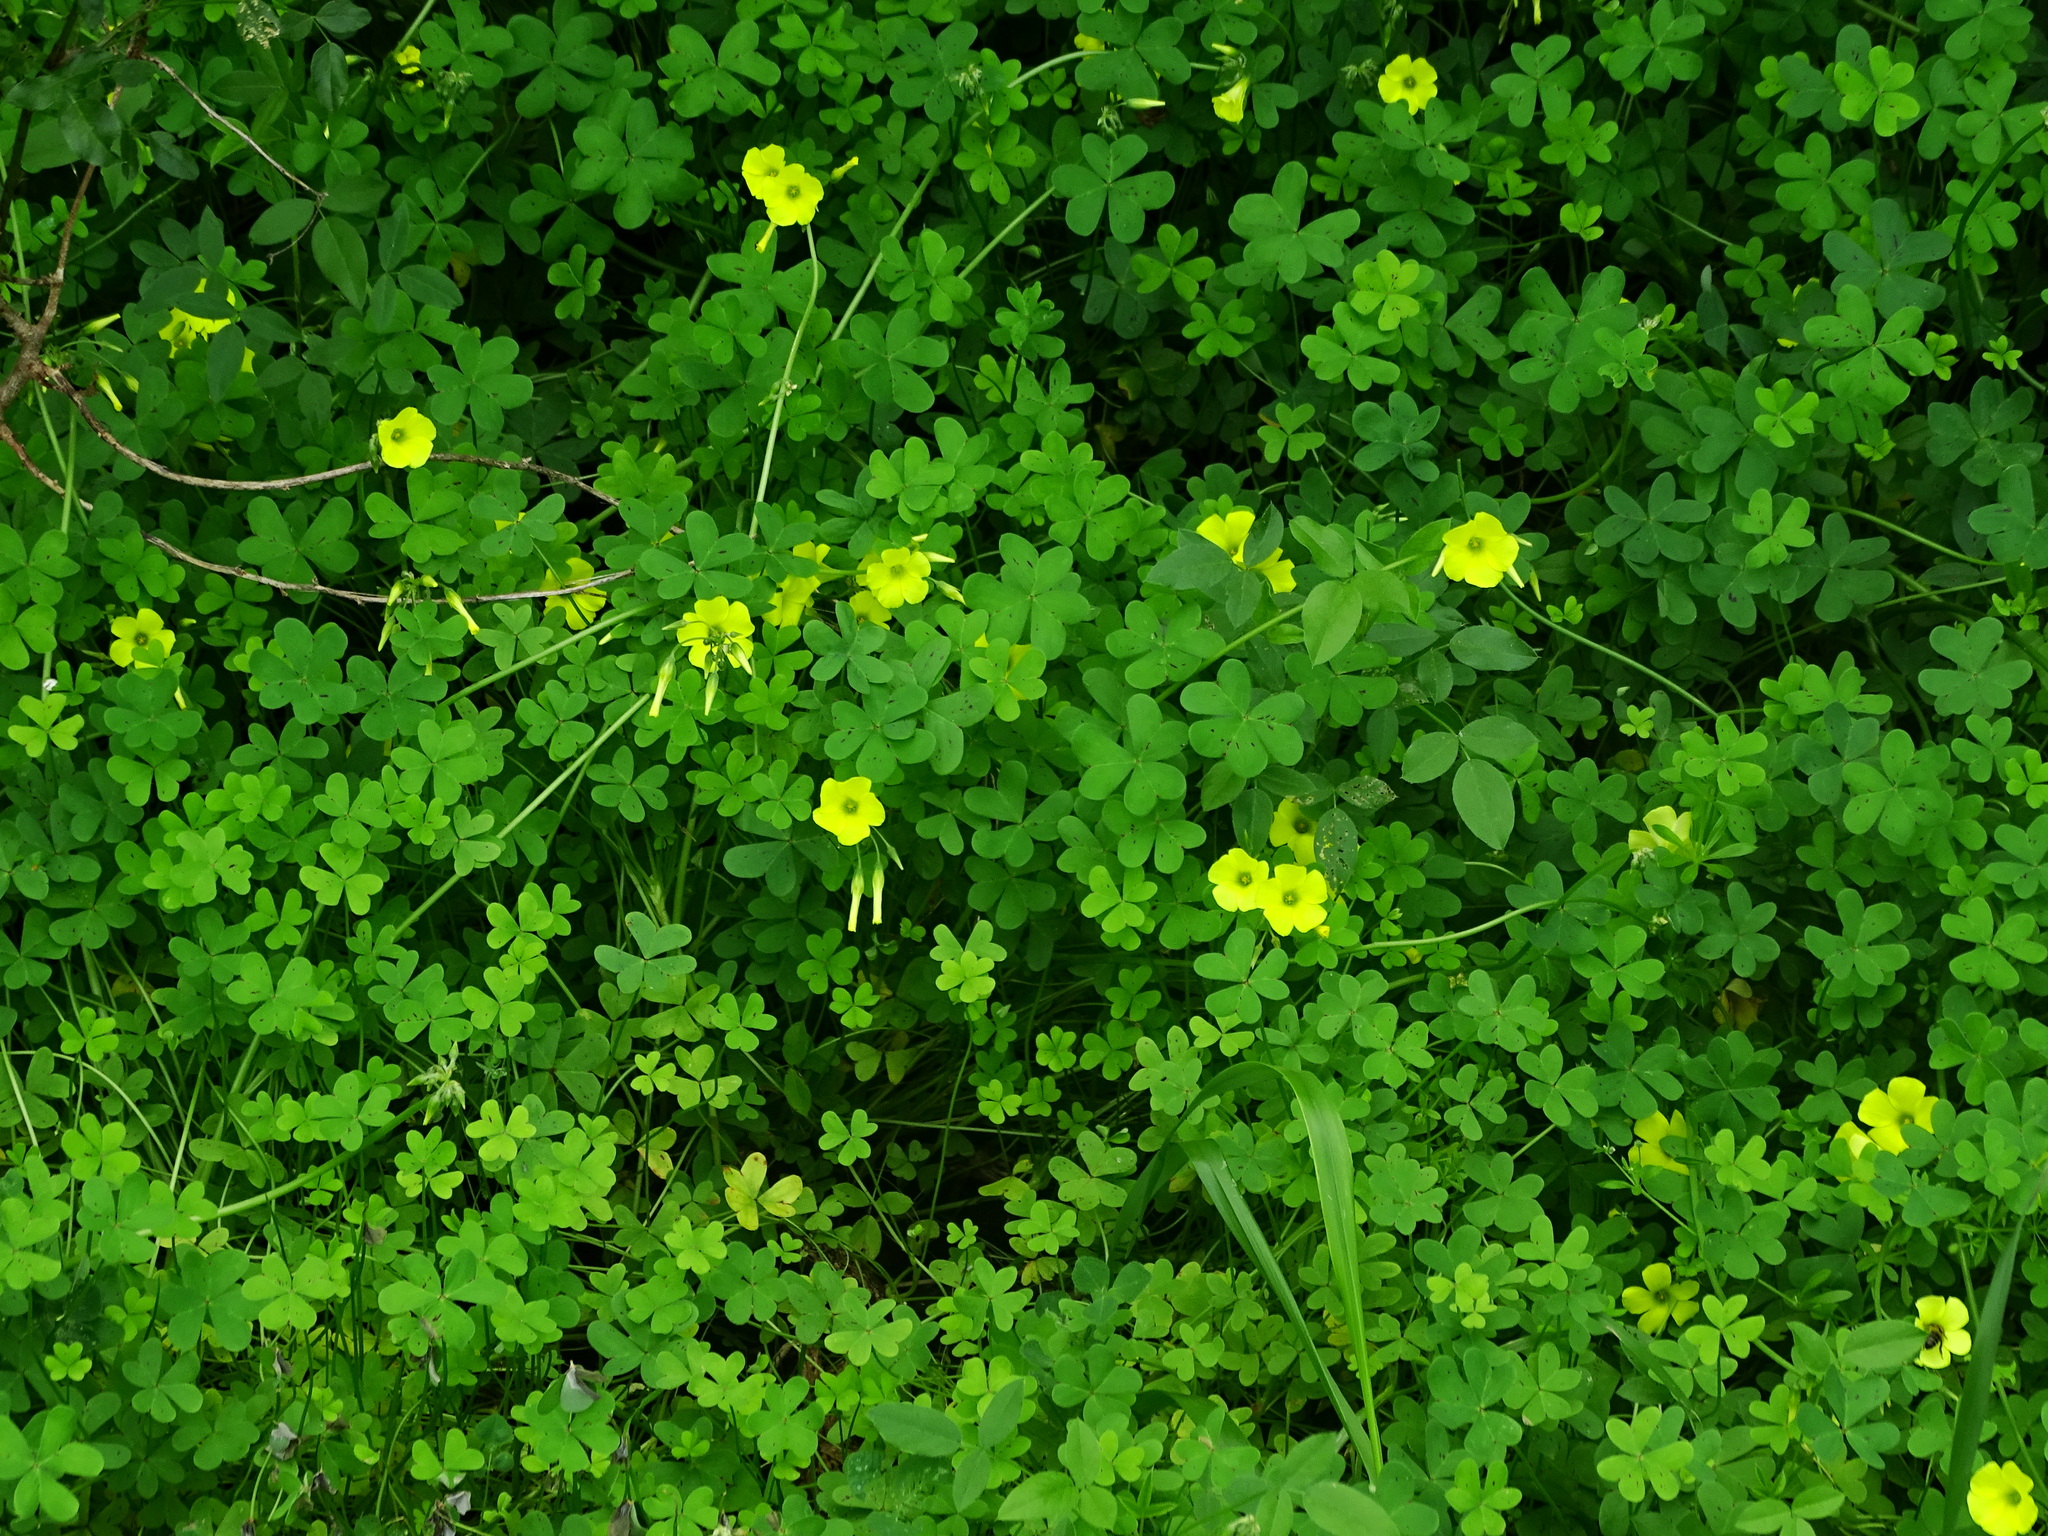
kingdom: Plantae
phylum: Tracheophyta
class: Magnoliopsida
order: Oxalidales
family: Oxalidaceae
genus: Oxalis
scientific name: Oxalis pes-caprae
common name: Bermuda-buttercup
